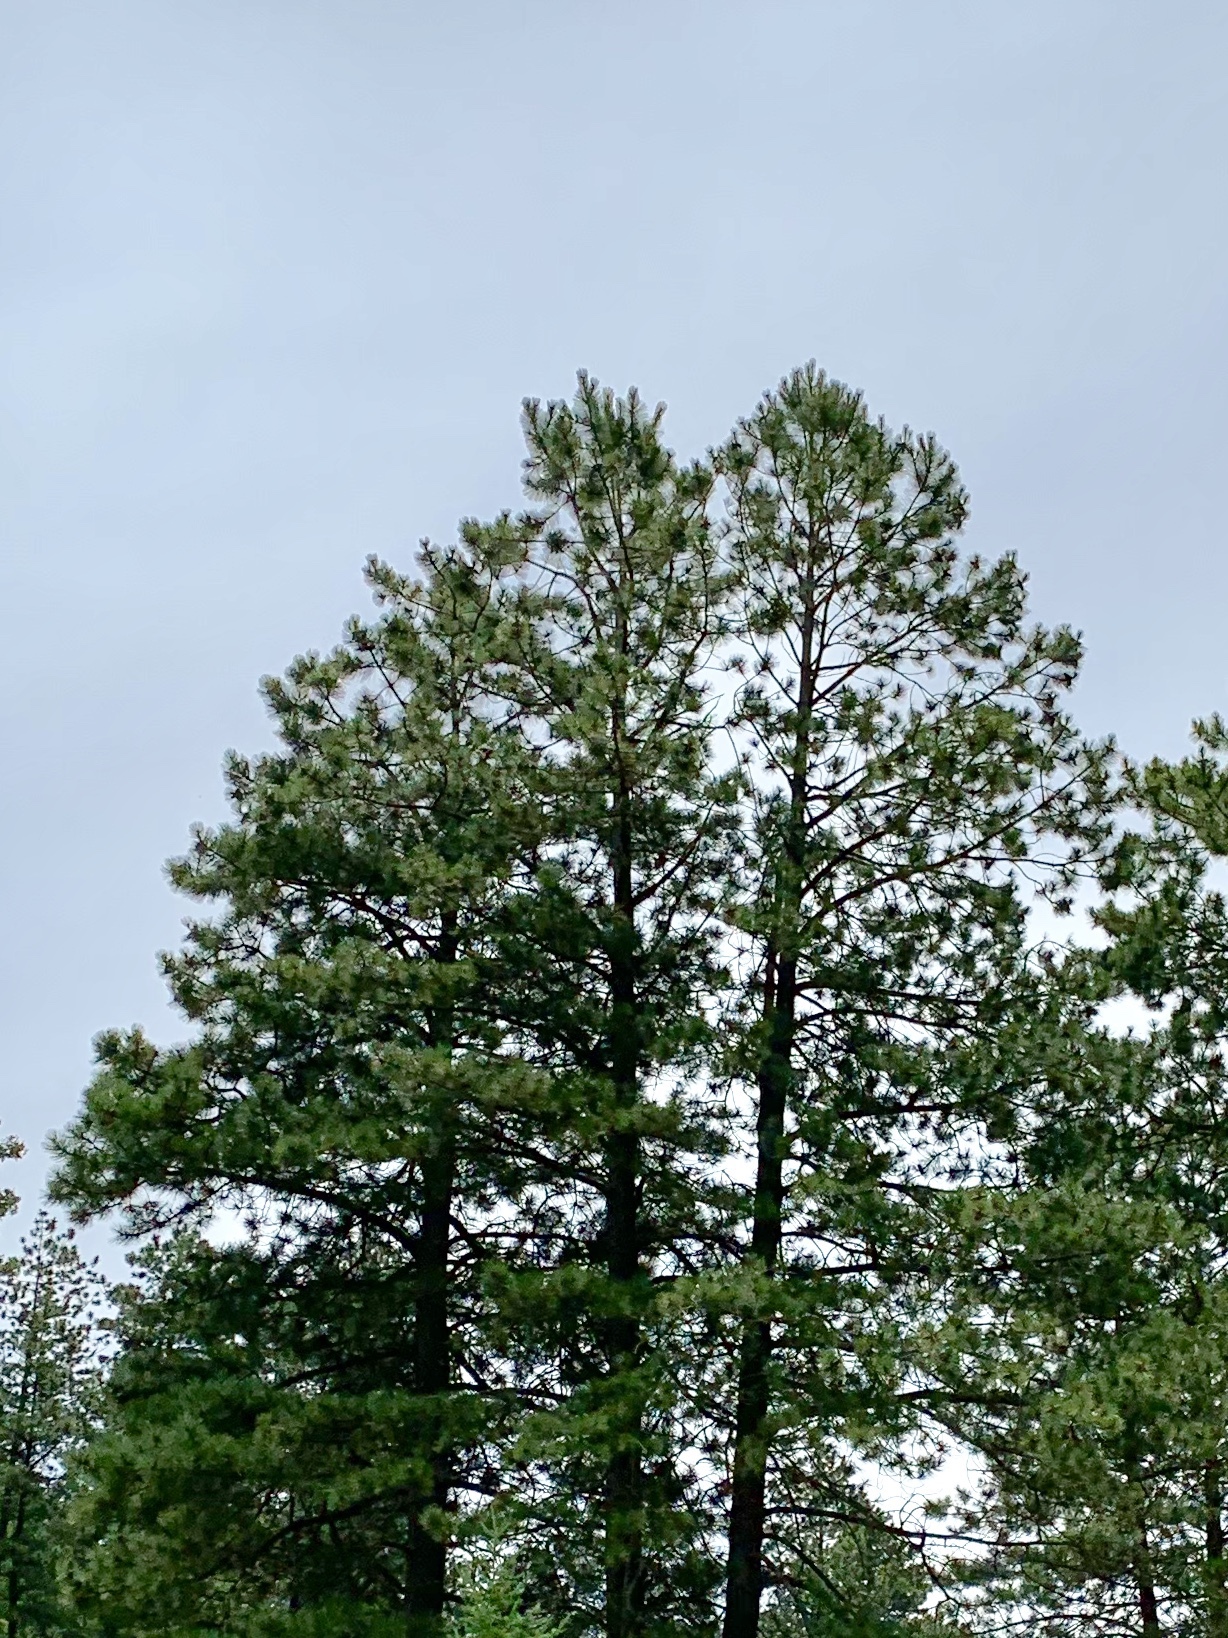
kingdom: Plantae
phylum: Tracheophyta
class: Pinopsida
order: Pinales
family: Pinaceae
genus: Pinus
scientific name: Pinus ponderosa
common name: Western yellow-pine
